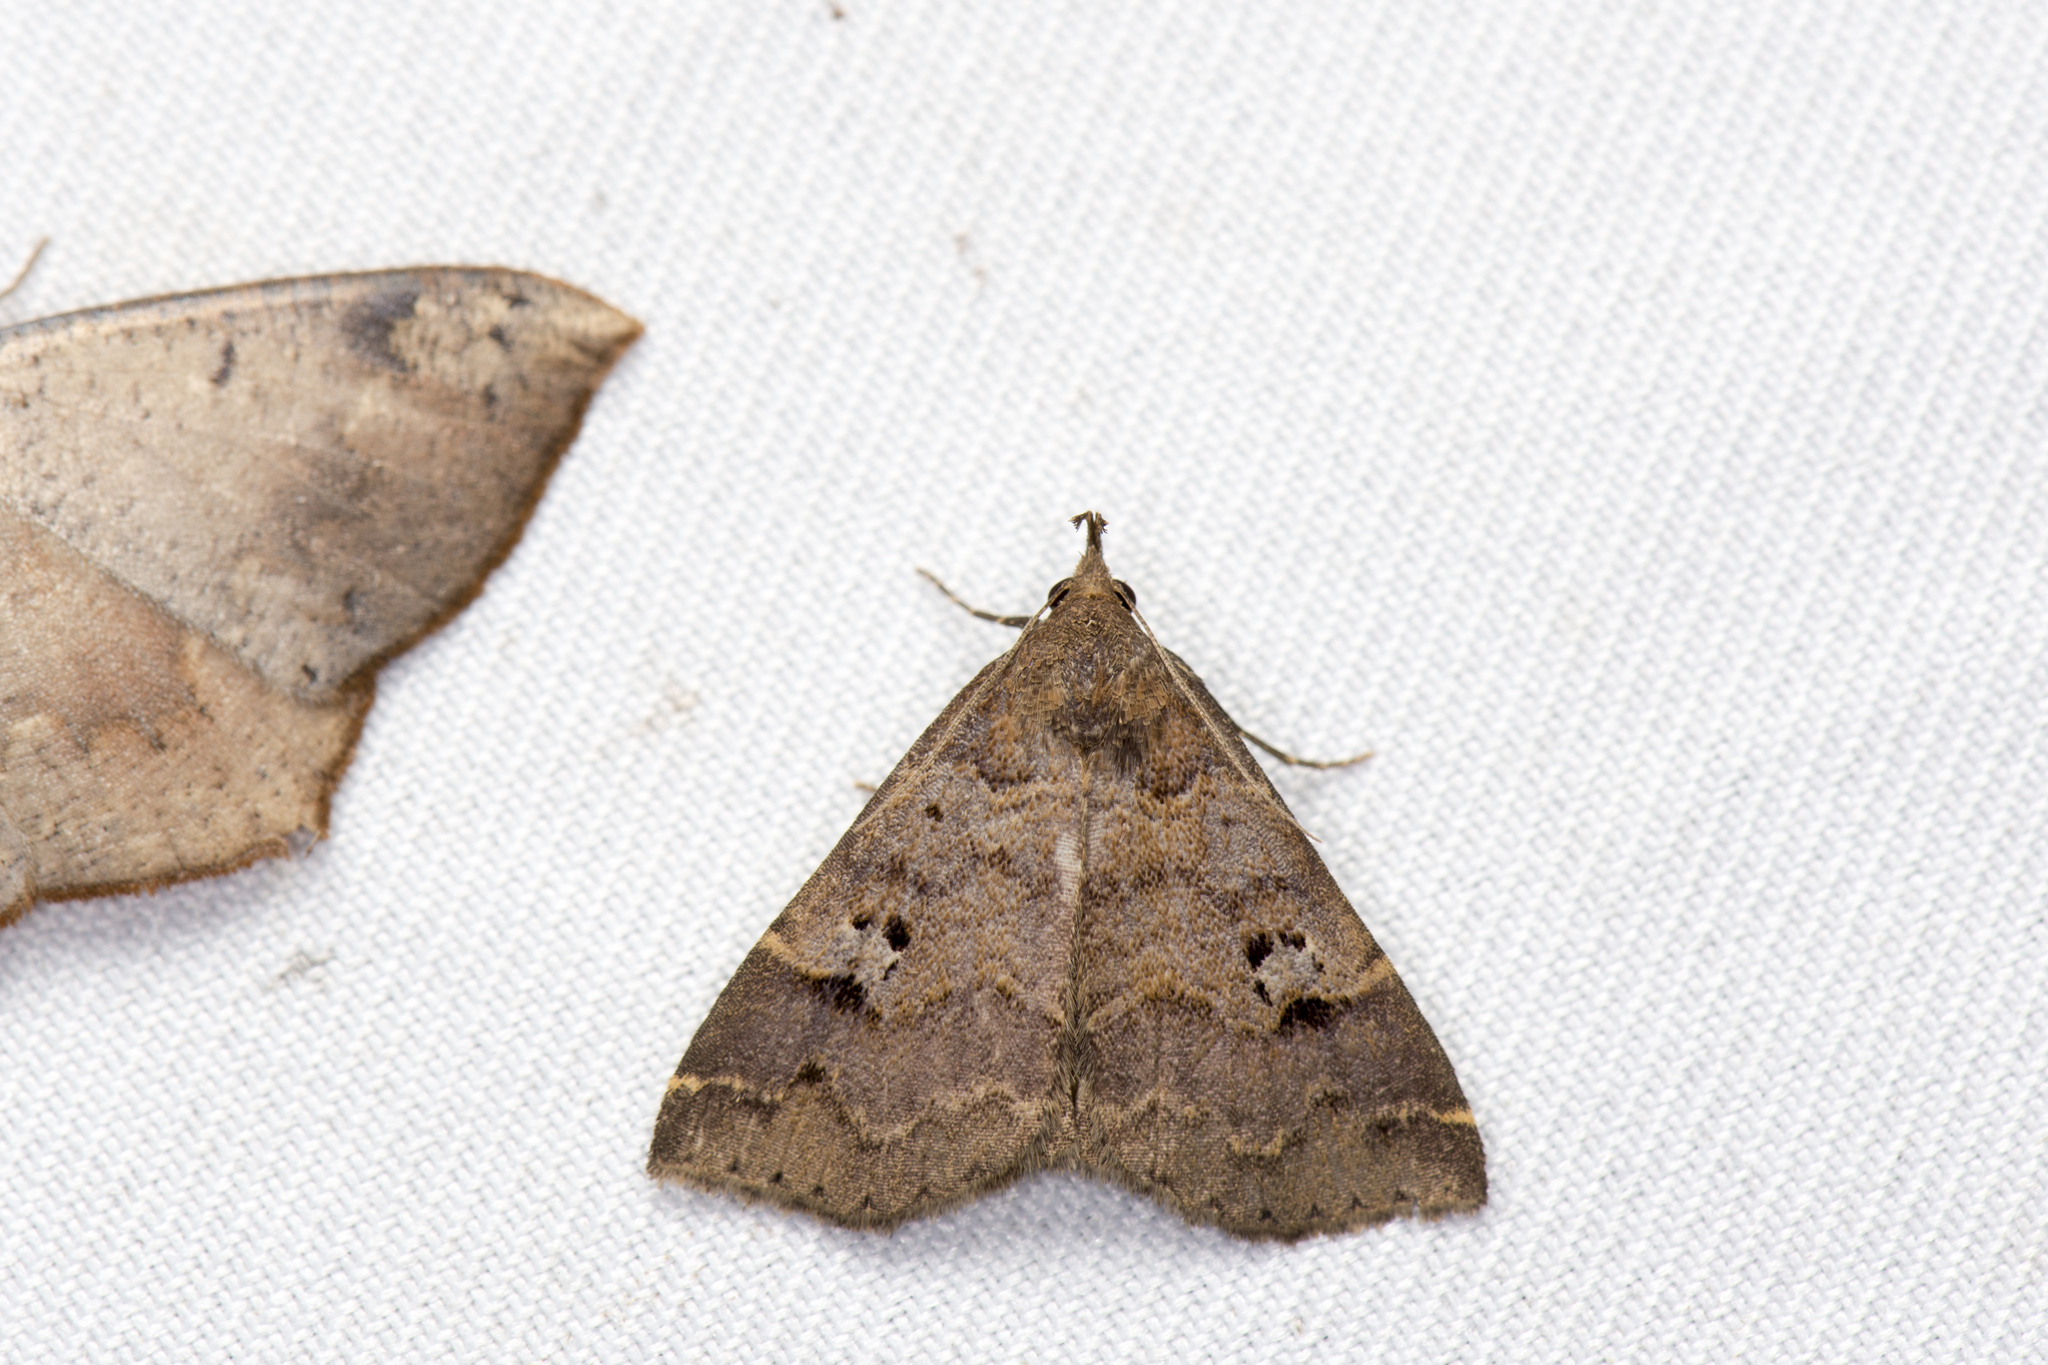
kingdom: Animalia
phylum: Arthropoda
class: Insecta
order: Lepidoptera
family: Erebidae
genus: Bertula
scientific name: Bertula hadenalis
